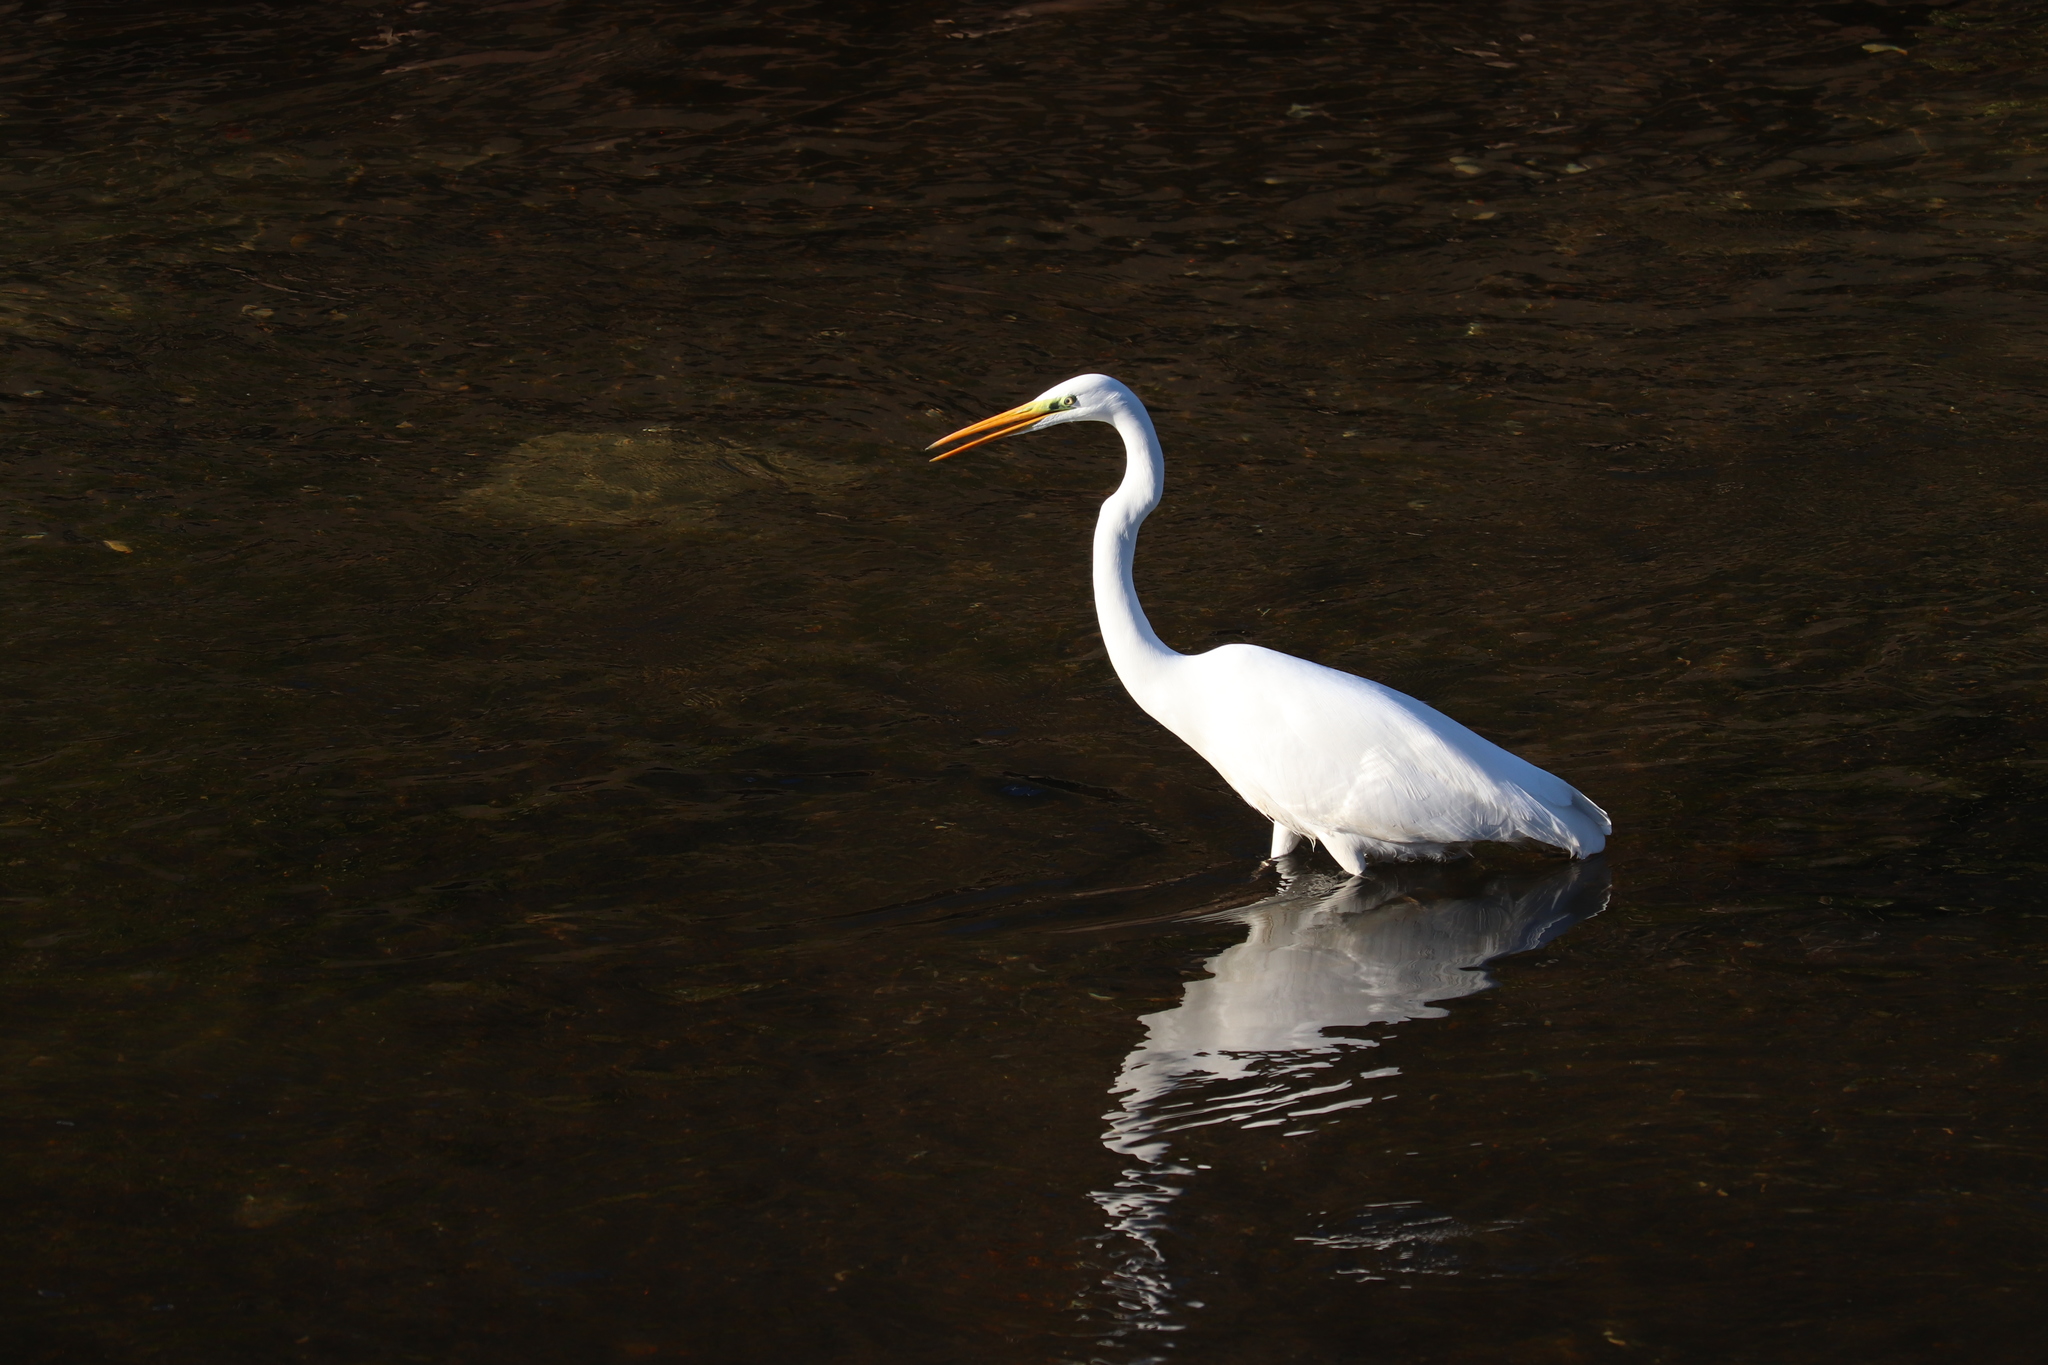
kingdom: Animalia
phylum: Chordata
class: Aves
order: Pelecaniformes
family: Ardeidae
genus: Ardea
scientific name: Ardea alba
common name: Great egret
